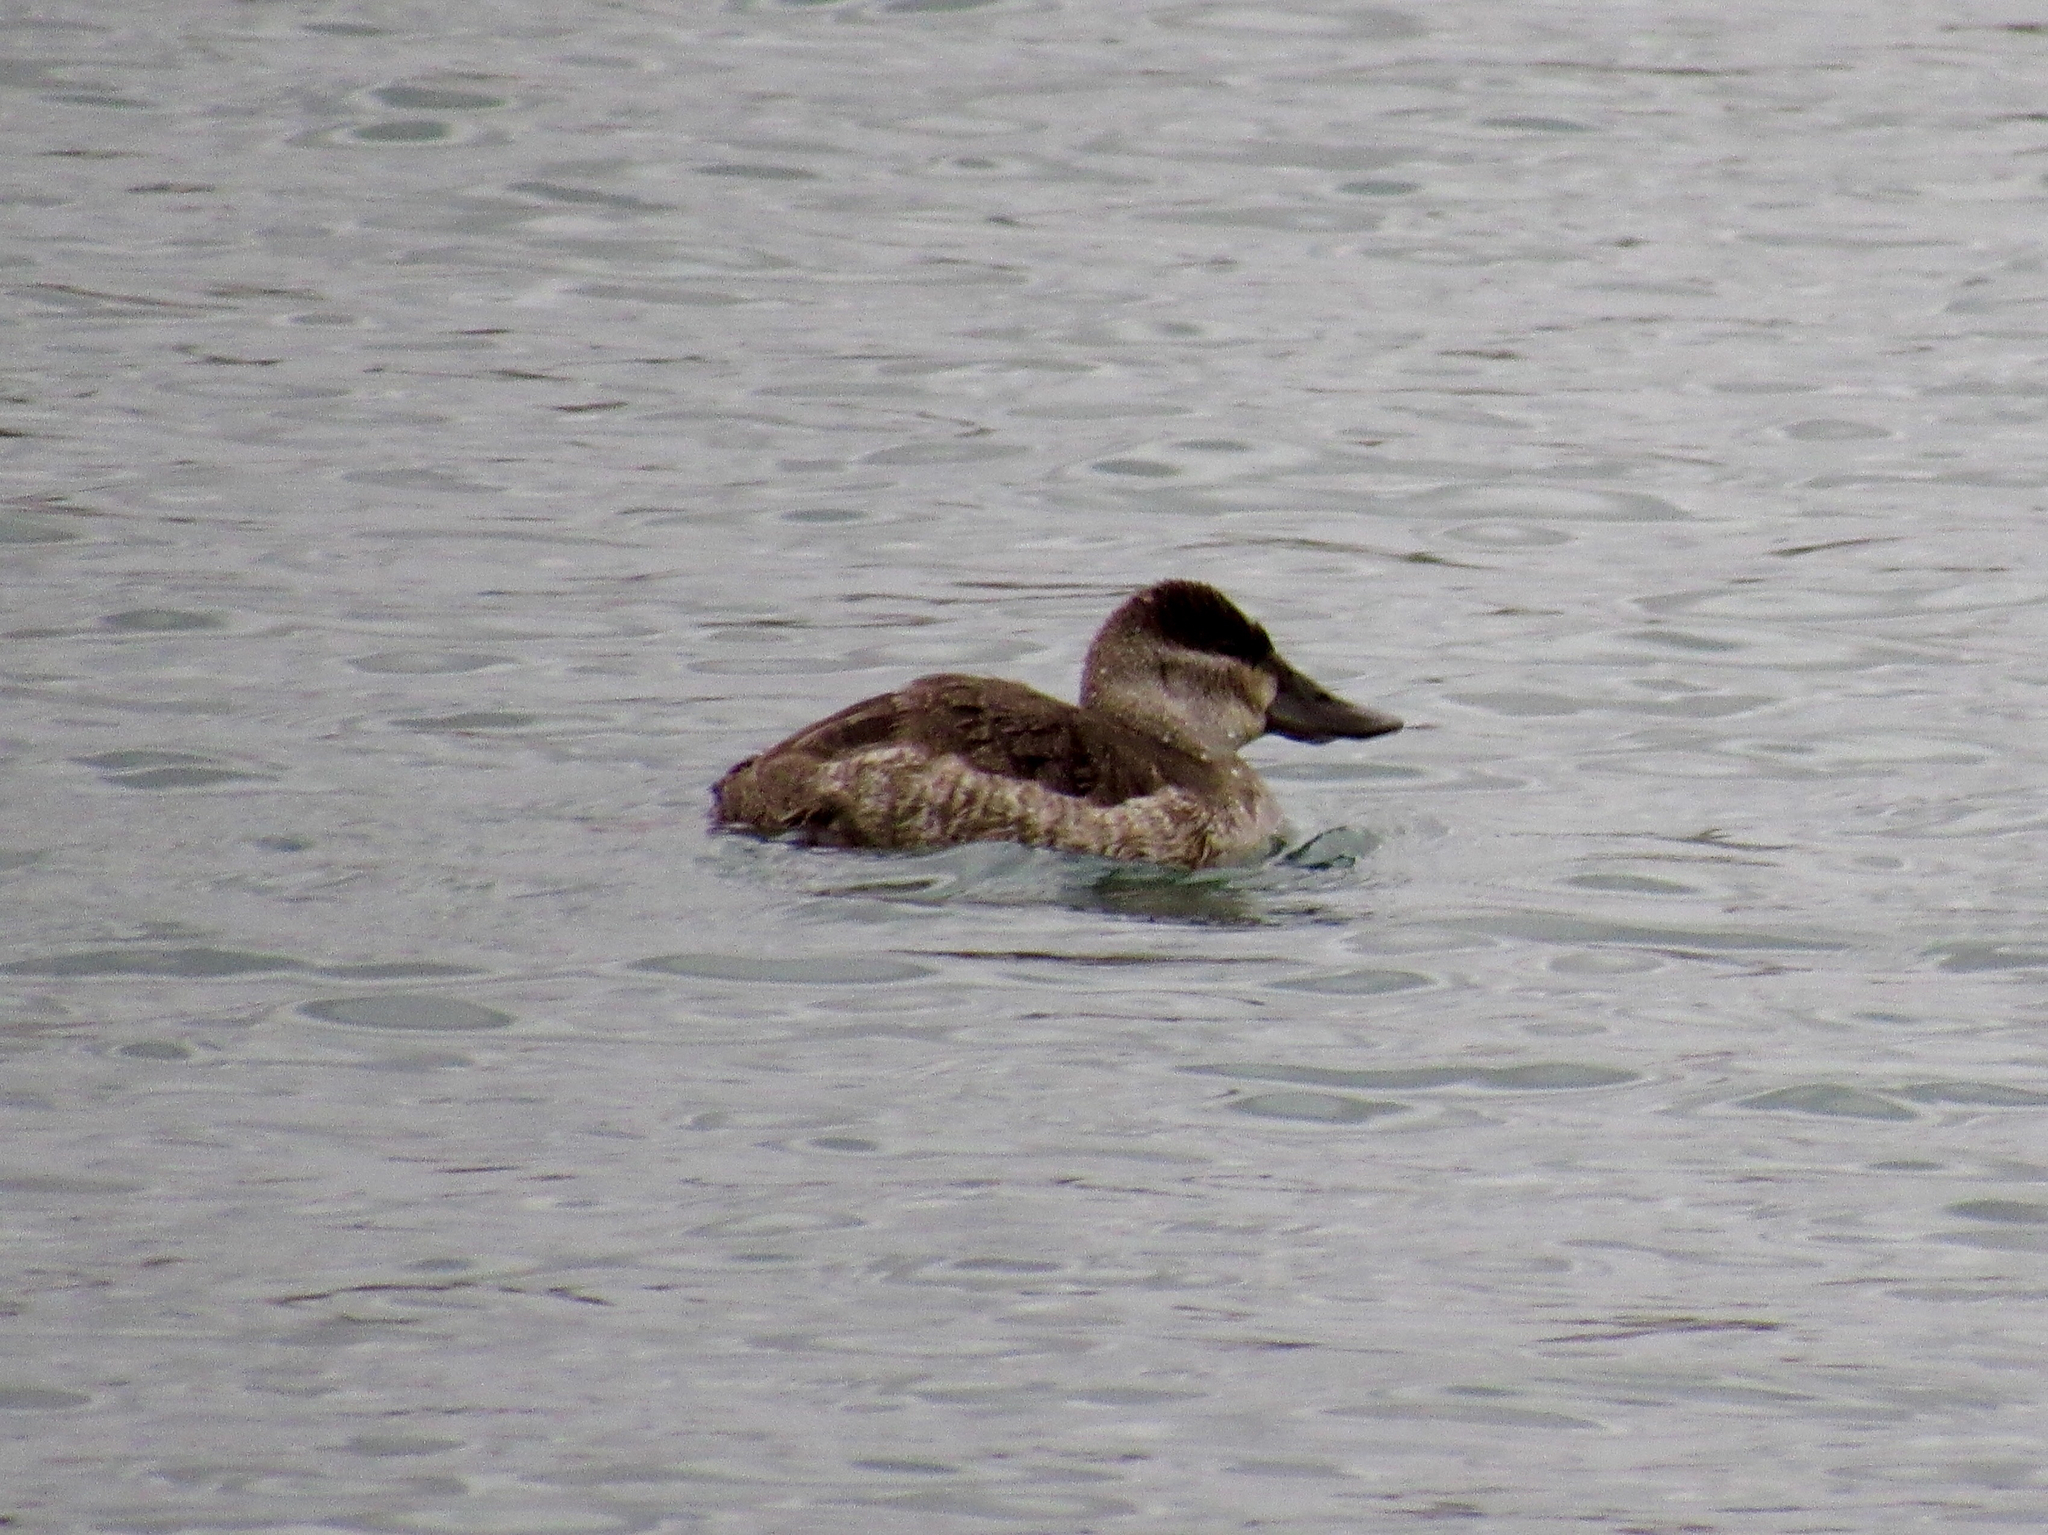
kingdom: Animalia
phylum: Chordata
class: Aves
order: Anseriformes
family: Anatidae
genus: Oxyura
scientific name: Oxyura jamaicensis
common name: Ruddy duck
